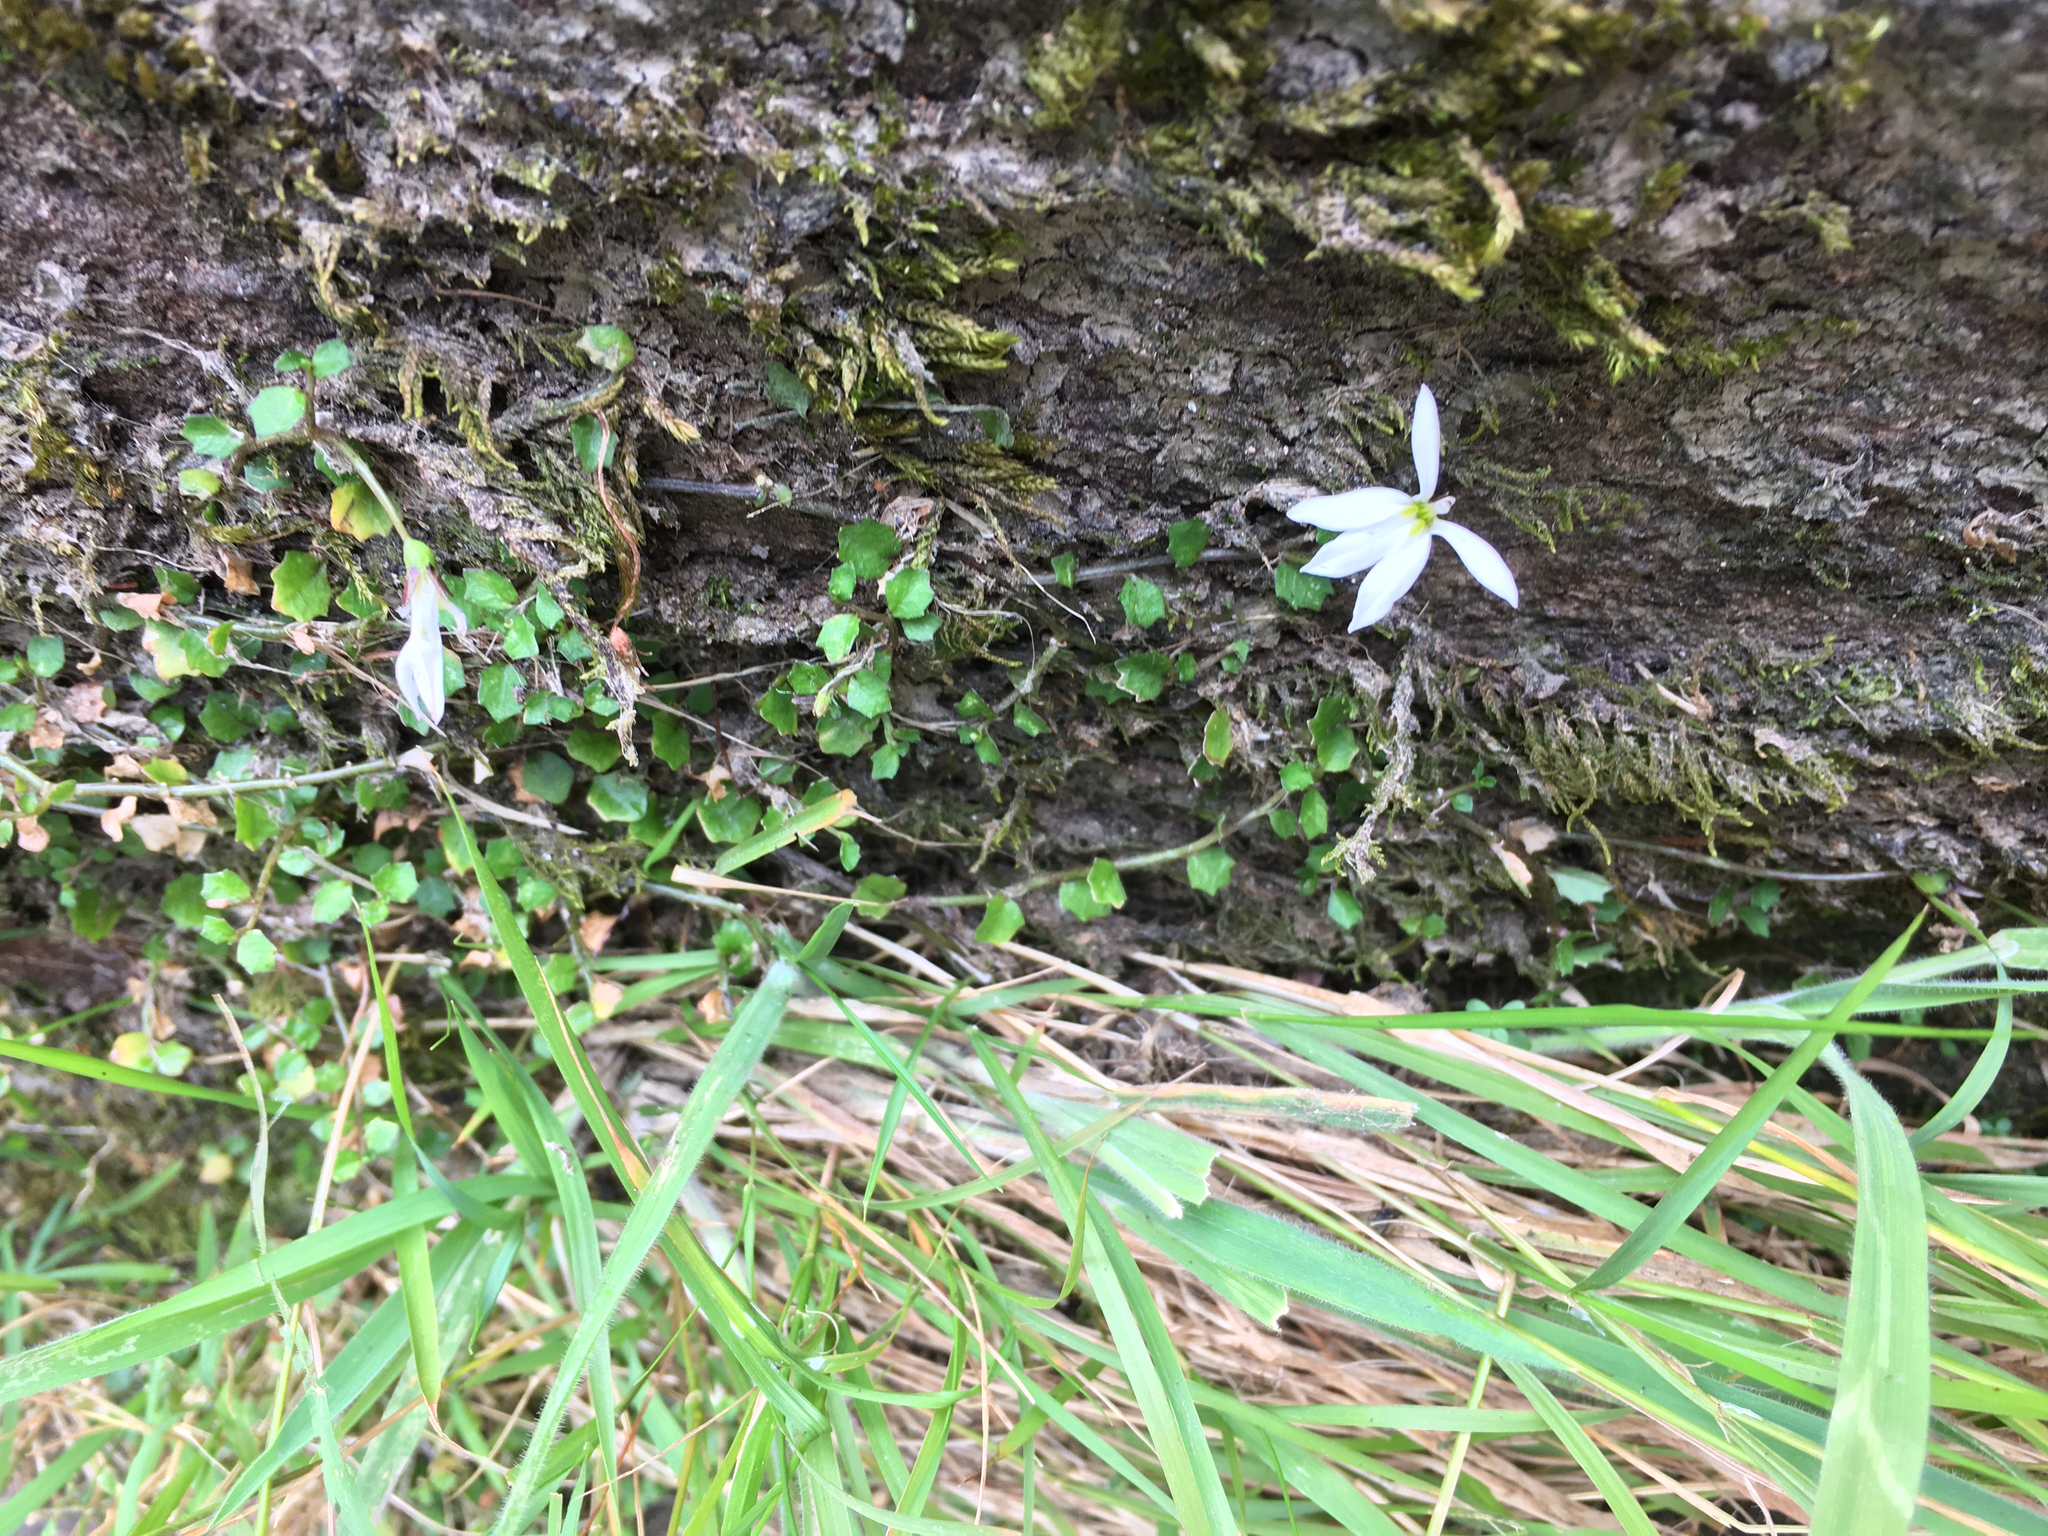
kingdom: Plantae
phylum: Tracheophyta
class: Magnoliopsida
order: Asterales
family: Campanulaceae
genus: Lobelia
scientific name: Lobelia angulata
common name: Lawn lobelia
